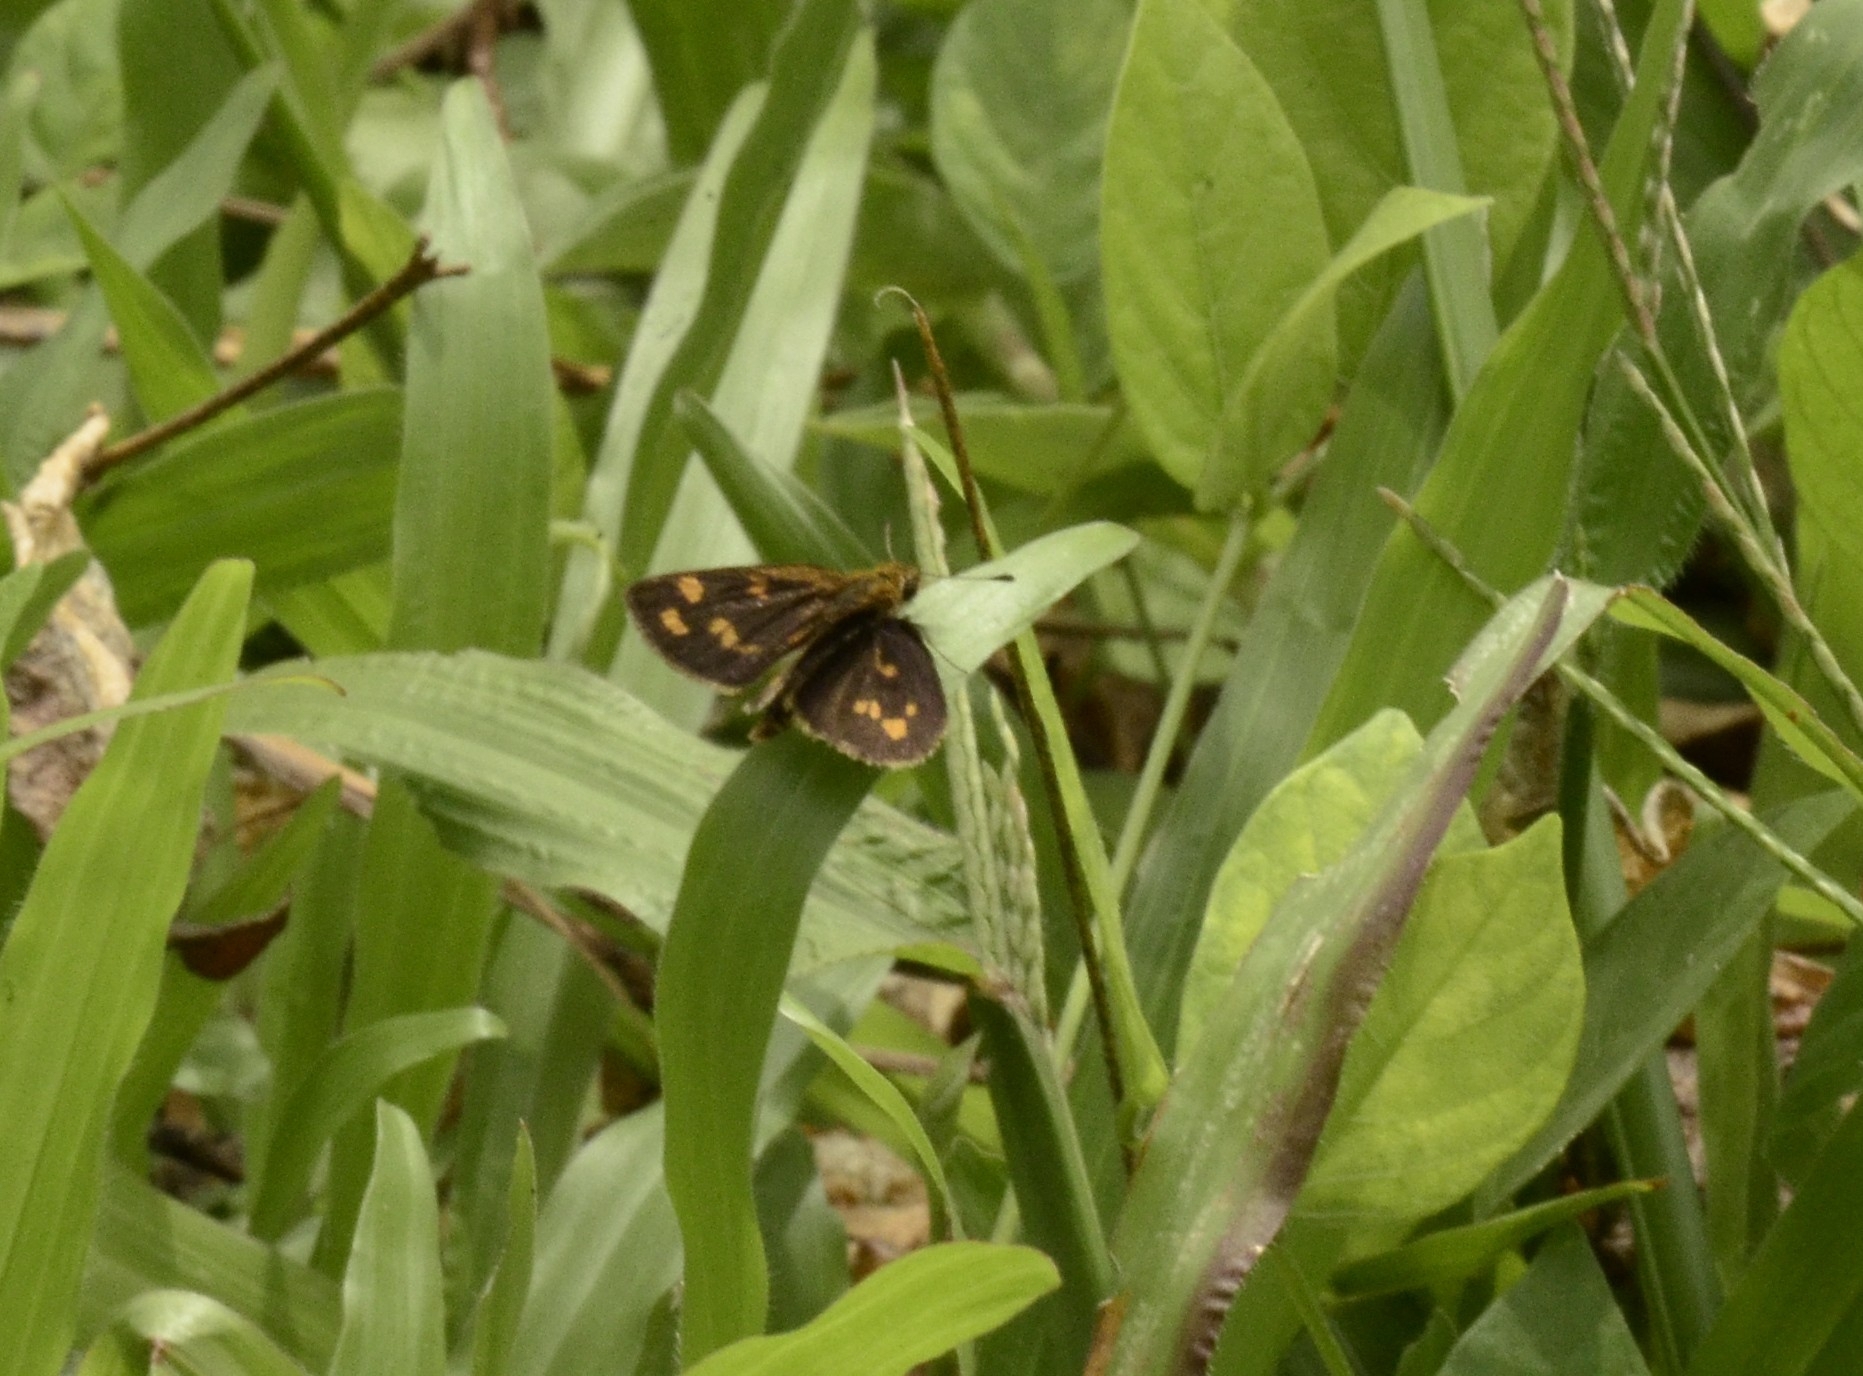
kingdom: Animalia
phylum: Arthropoda
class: Insecta
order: Lepidoptera
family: Hesperiidae
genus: Taractrocera
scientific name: Taractrocera ceramas
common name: Tamil grass dart
